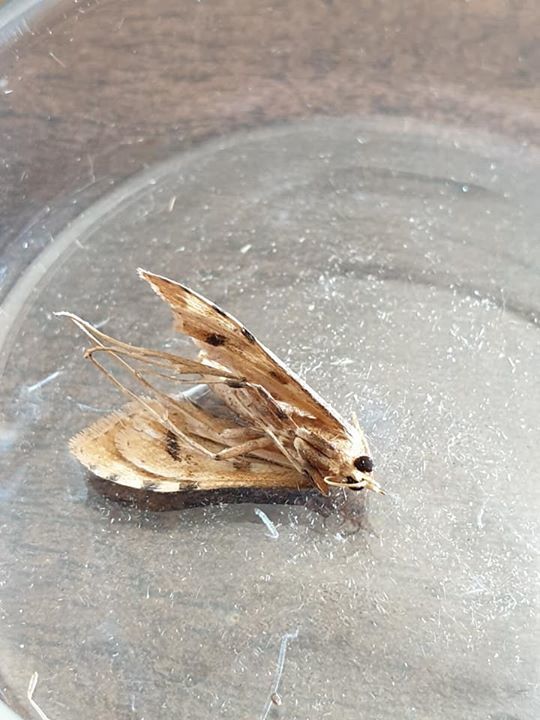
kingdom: Animalia
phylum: Arthropoda
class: Insecta
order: Lepidoptera
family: Crambidae
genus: Sceliodes
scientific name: Sceliodes cordalis
